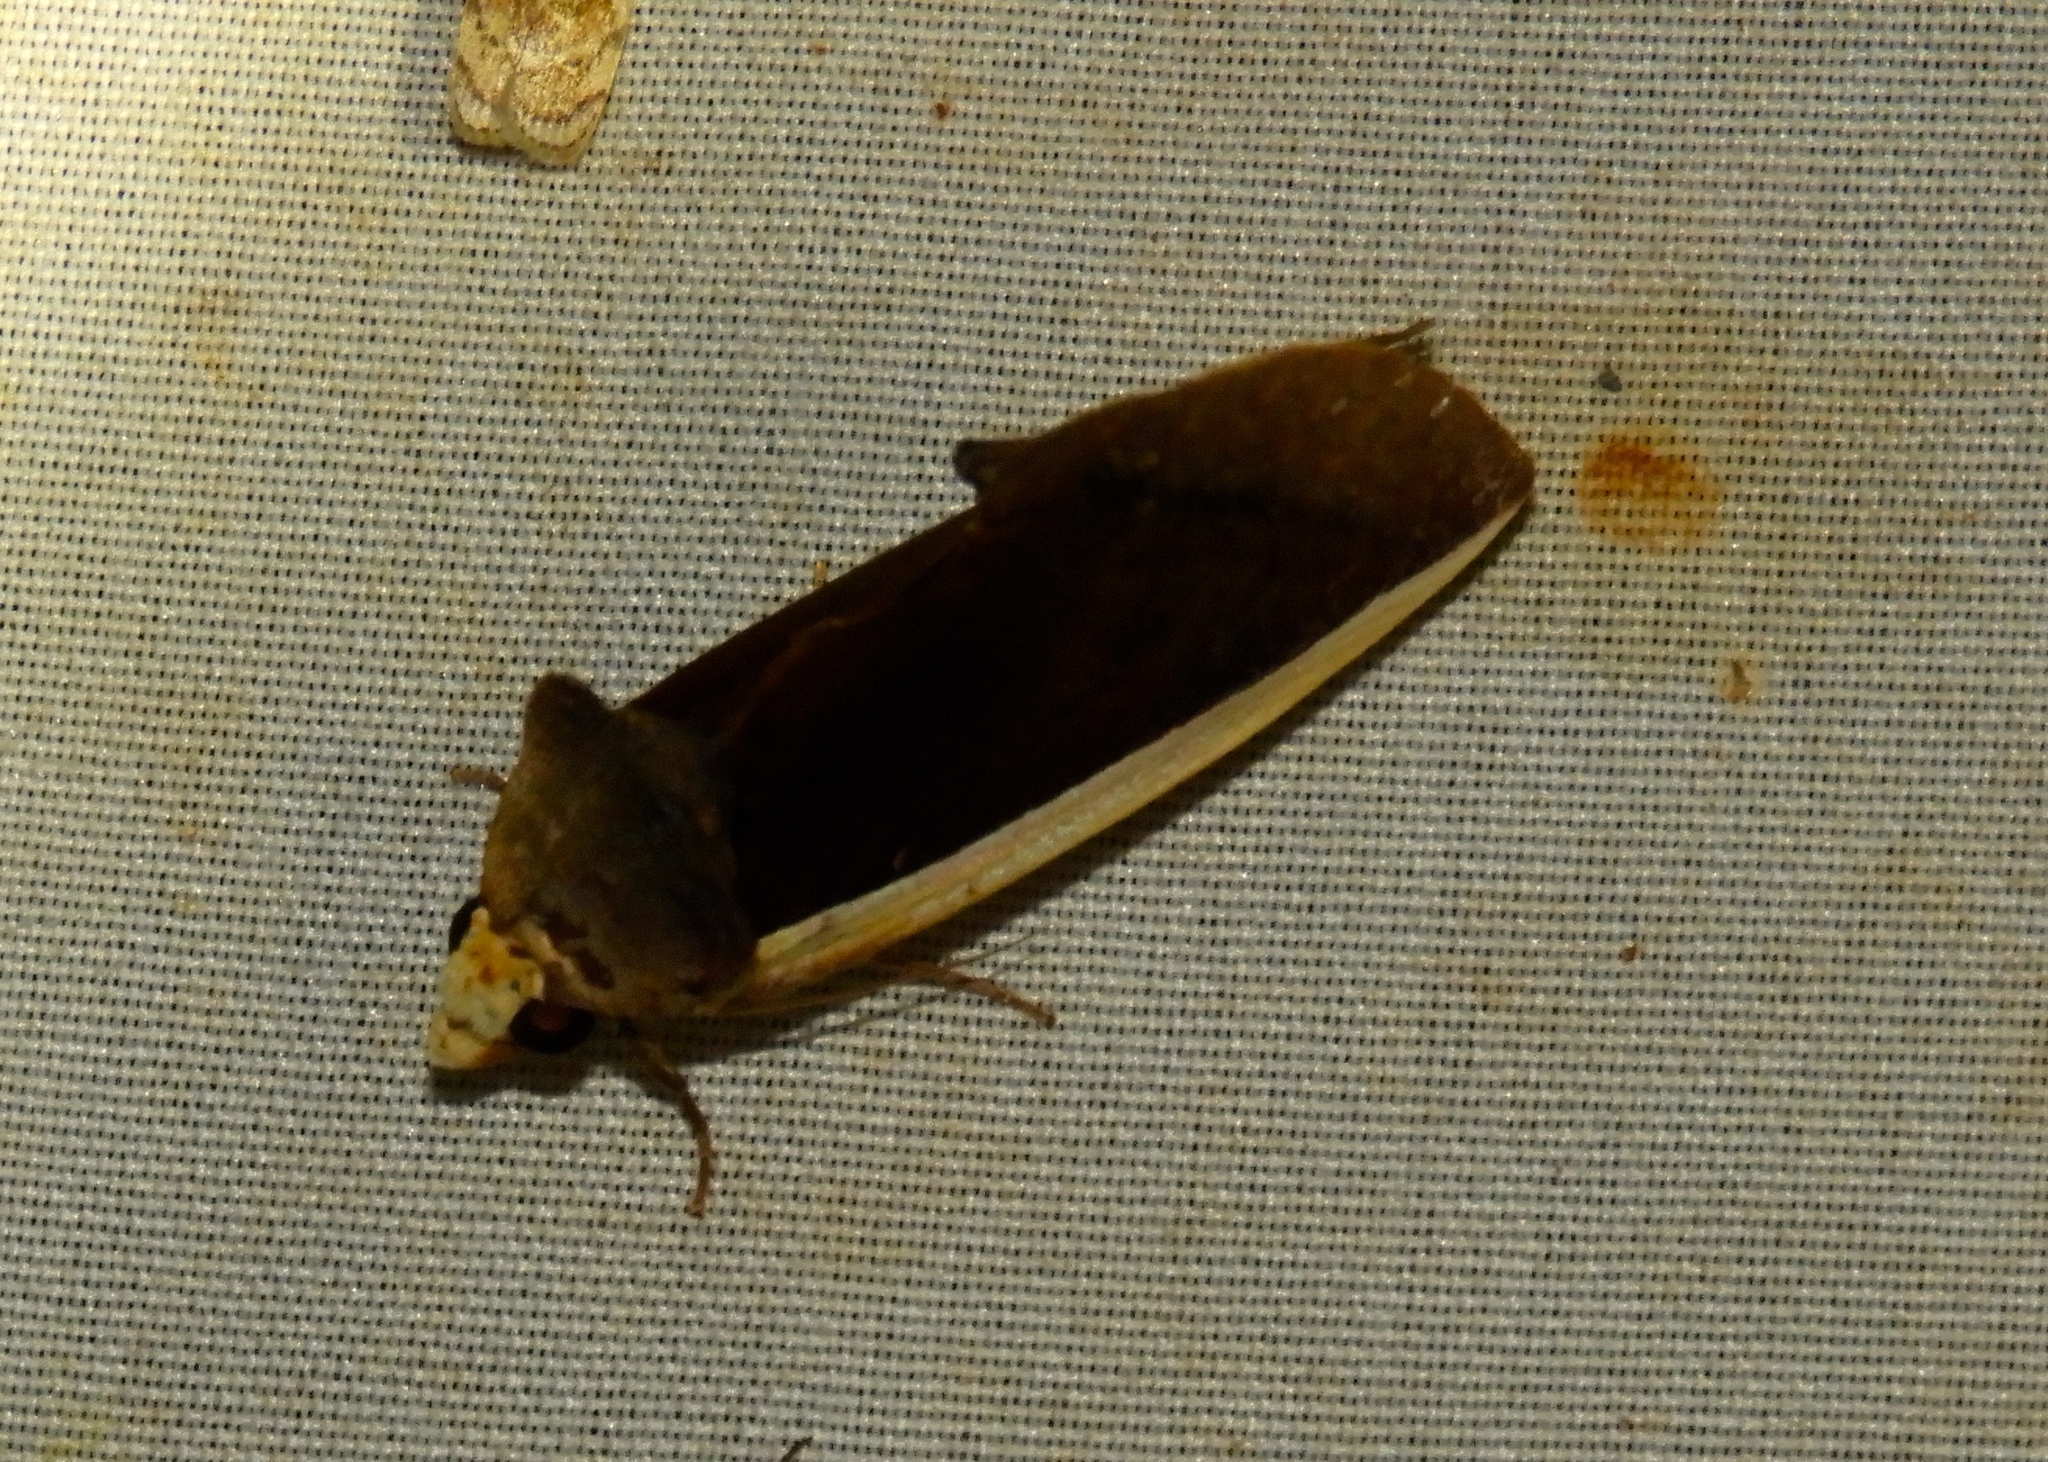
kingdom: Animalia
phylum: Arthropoda
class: Insecta
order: Lepidoptera
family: Erebidae
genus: Gonodonta
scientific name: Gonodonta pyrgo
